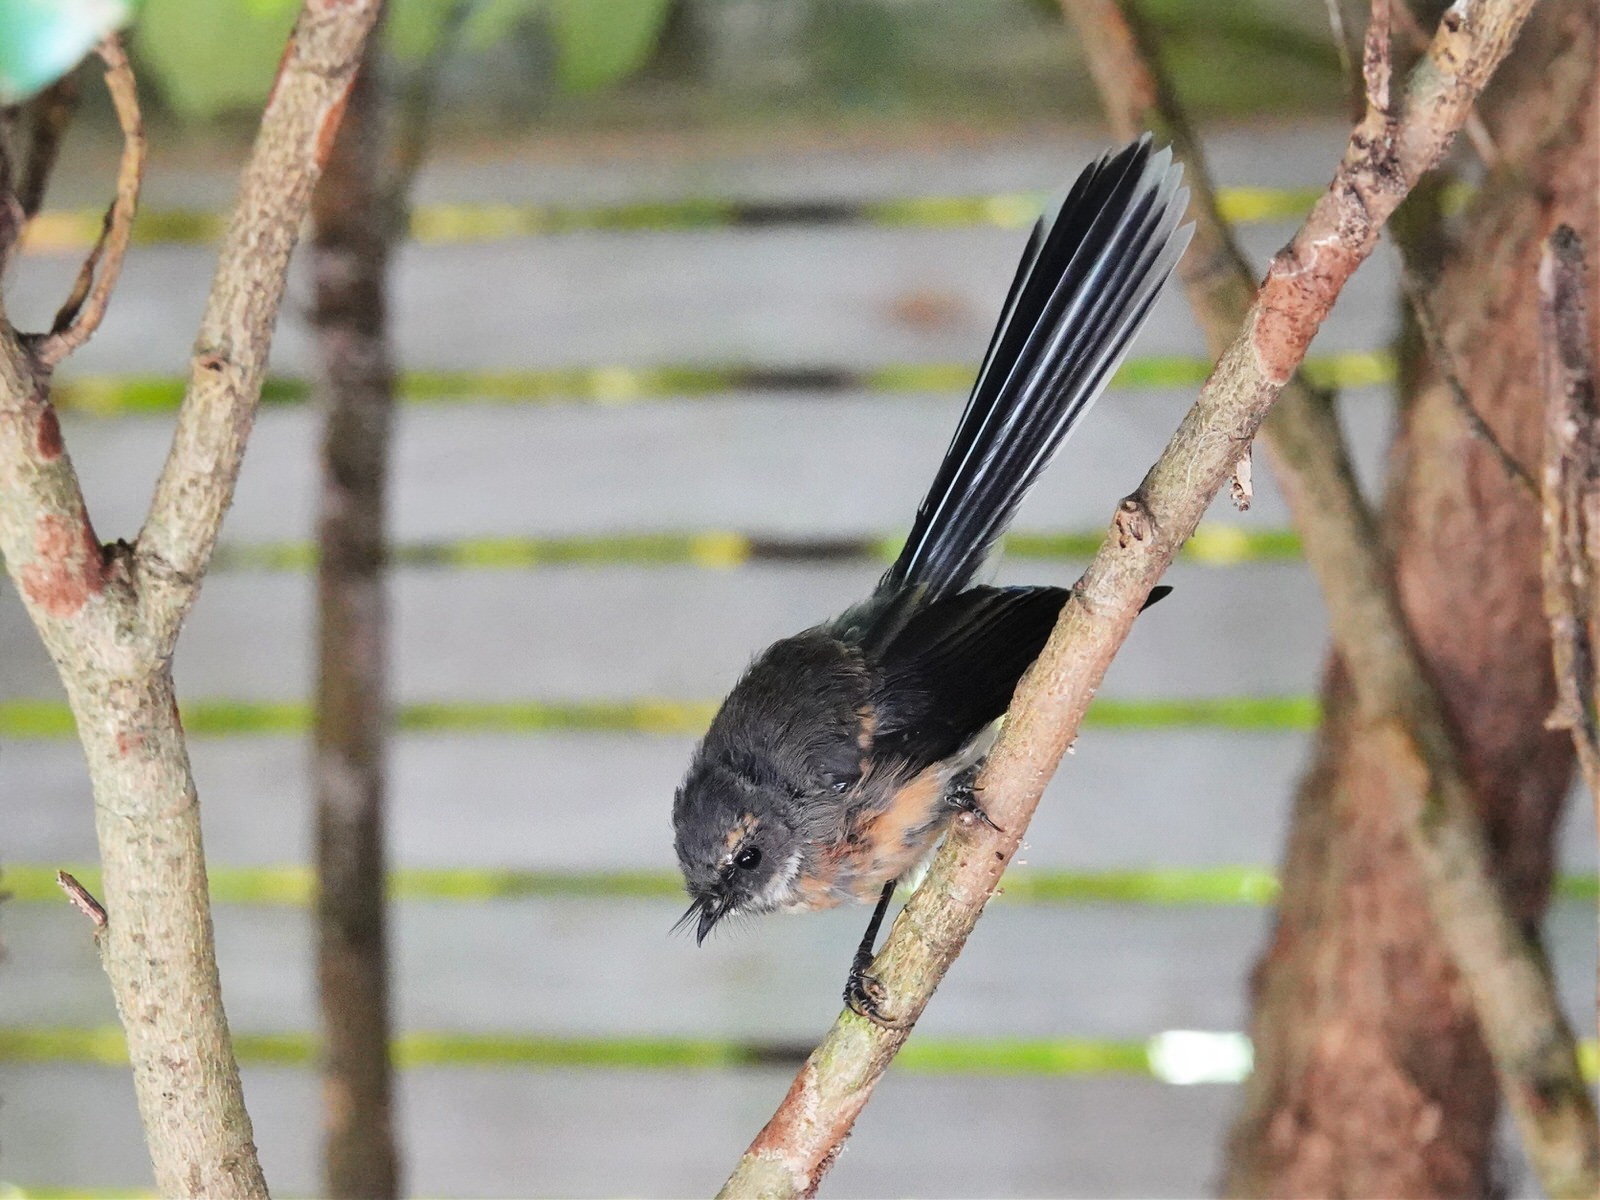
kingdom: Animalia
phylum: Chordata
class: Aves
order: Passeriformes
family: Rhipiduridae
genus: Rhipidura
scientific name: Rhipidura fuliginosa
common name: New zealand fantail
